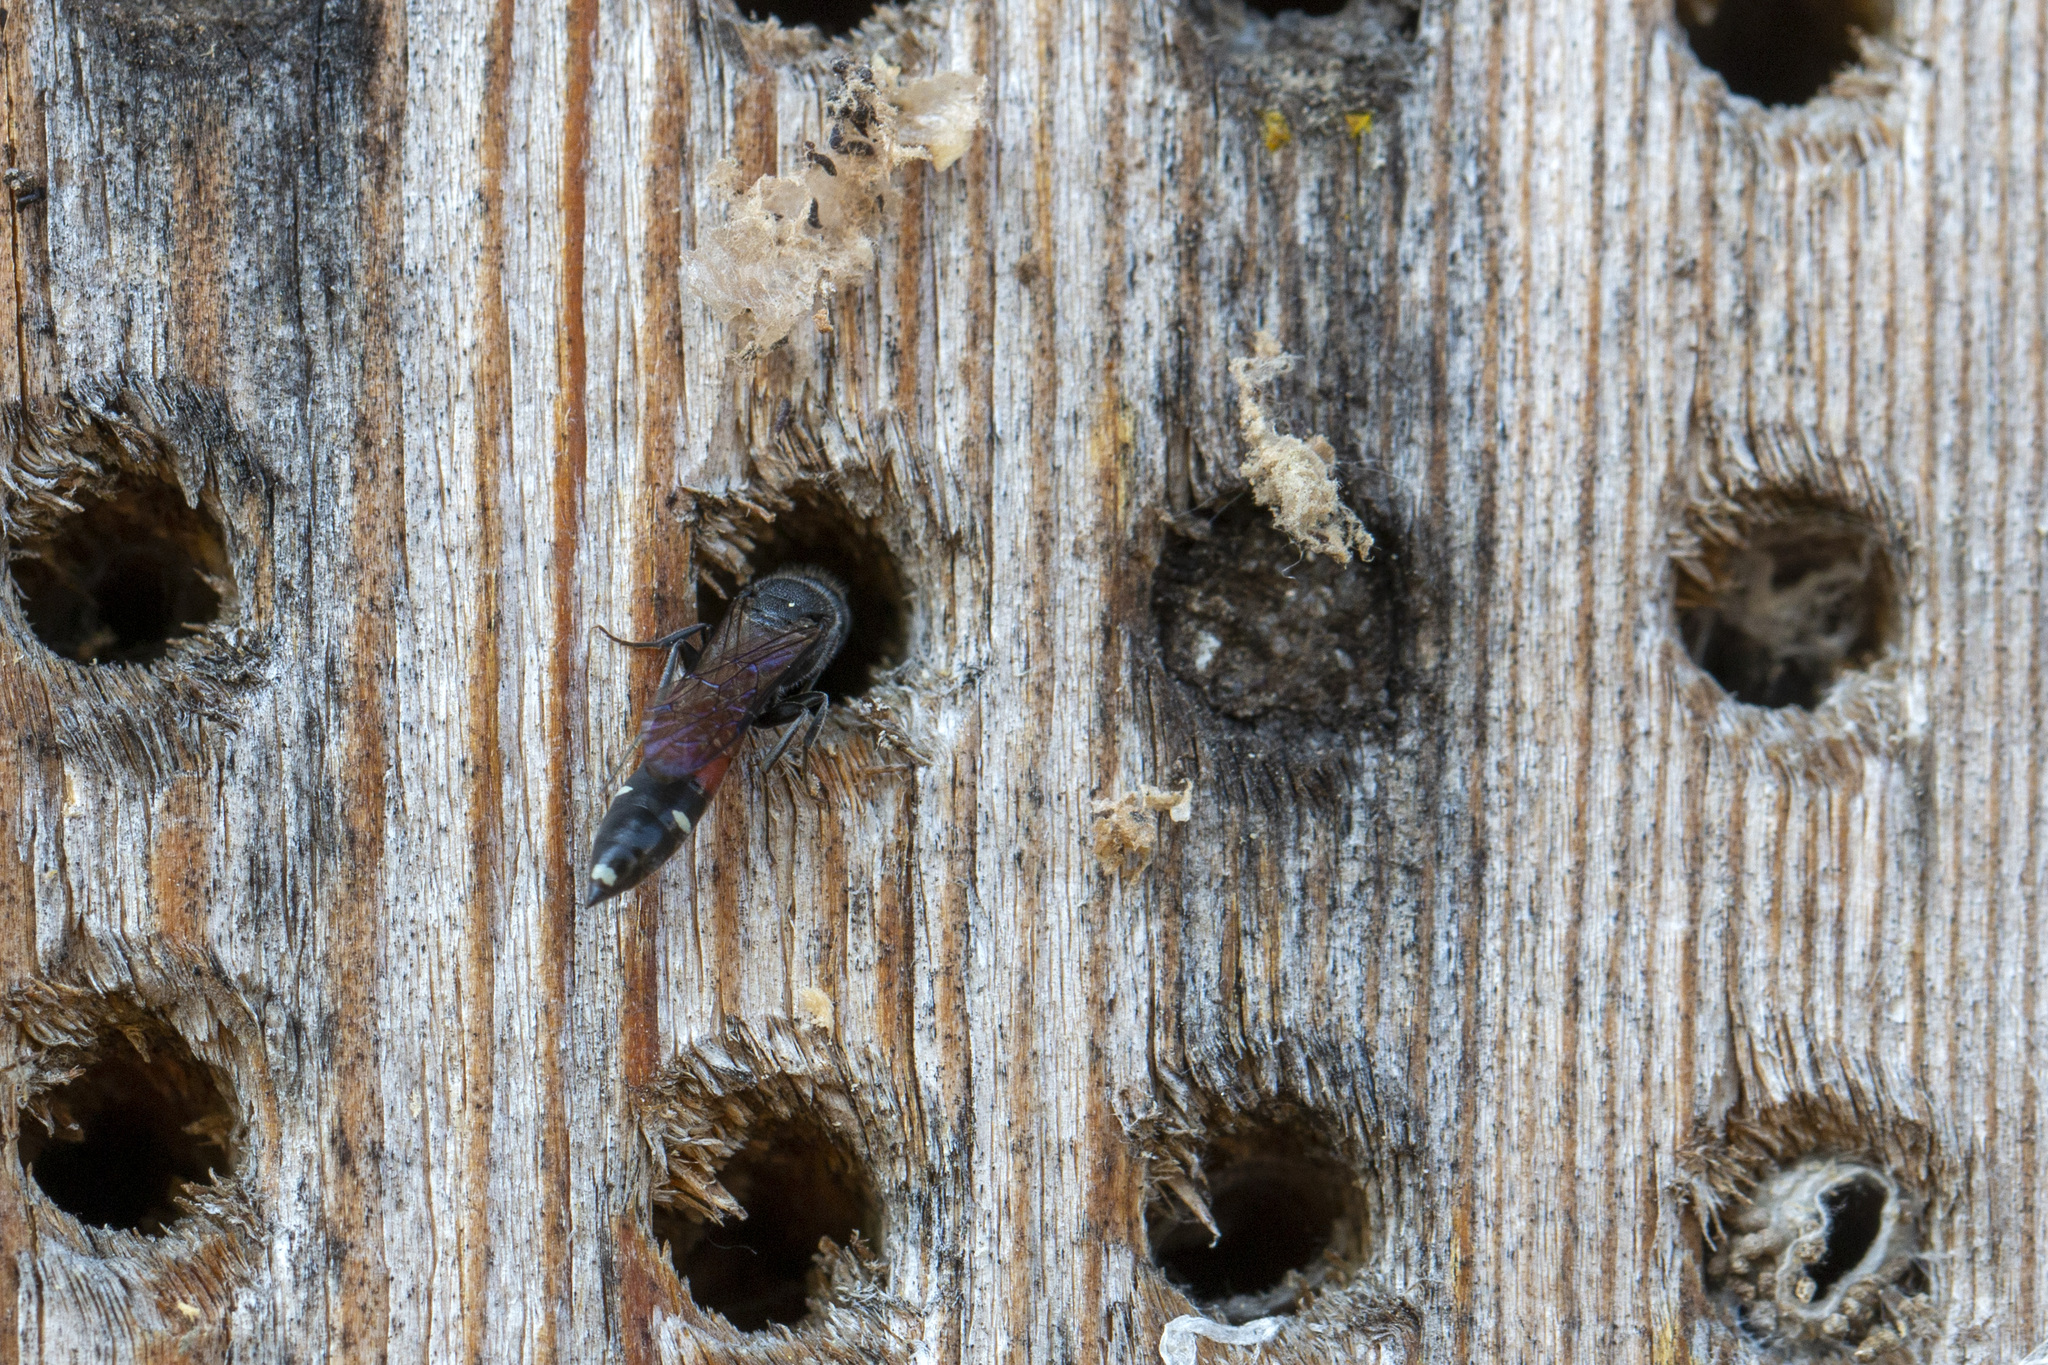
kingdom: Animalia
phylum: Arthropoda
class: Insecta
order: Hymenoptera
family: Sapygidae
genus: Sapyga
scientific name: Sapyga quinquepunctata
